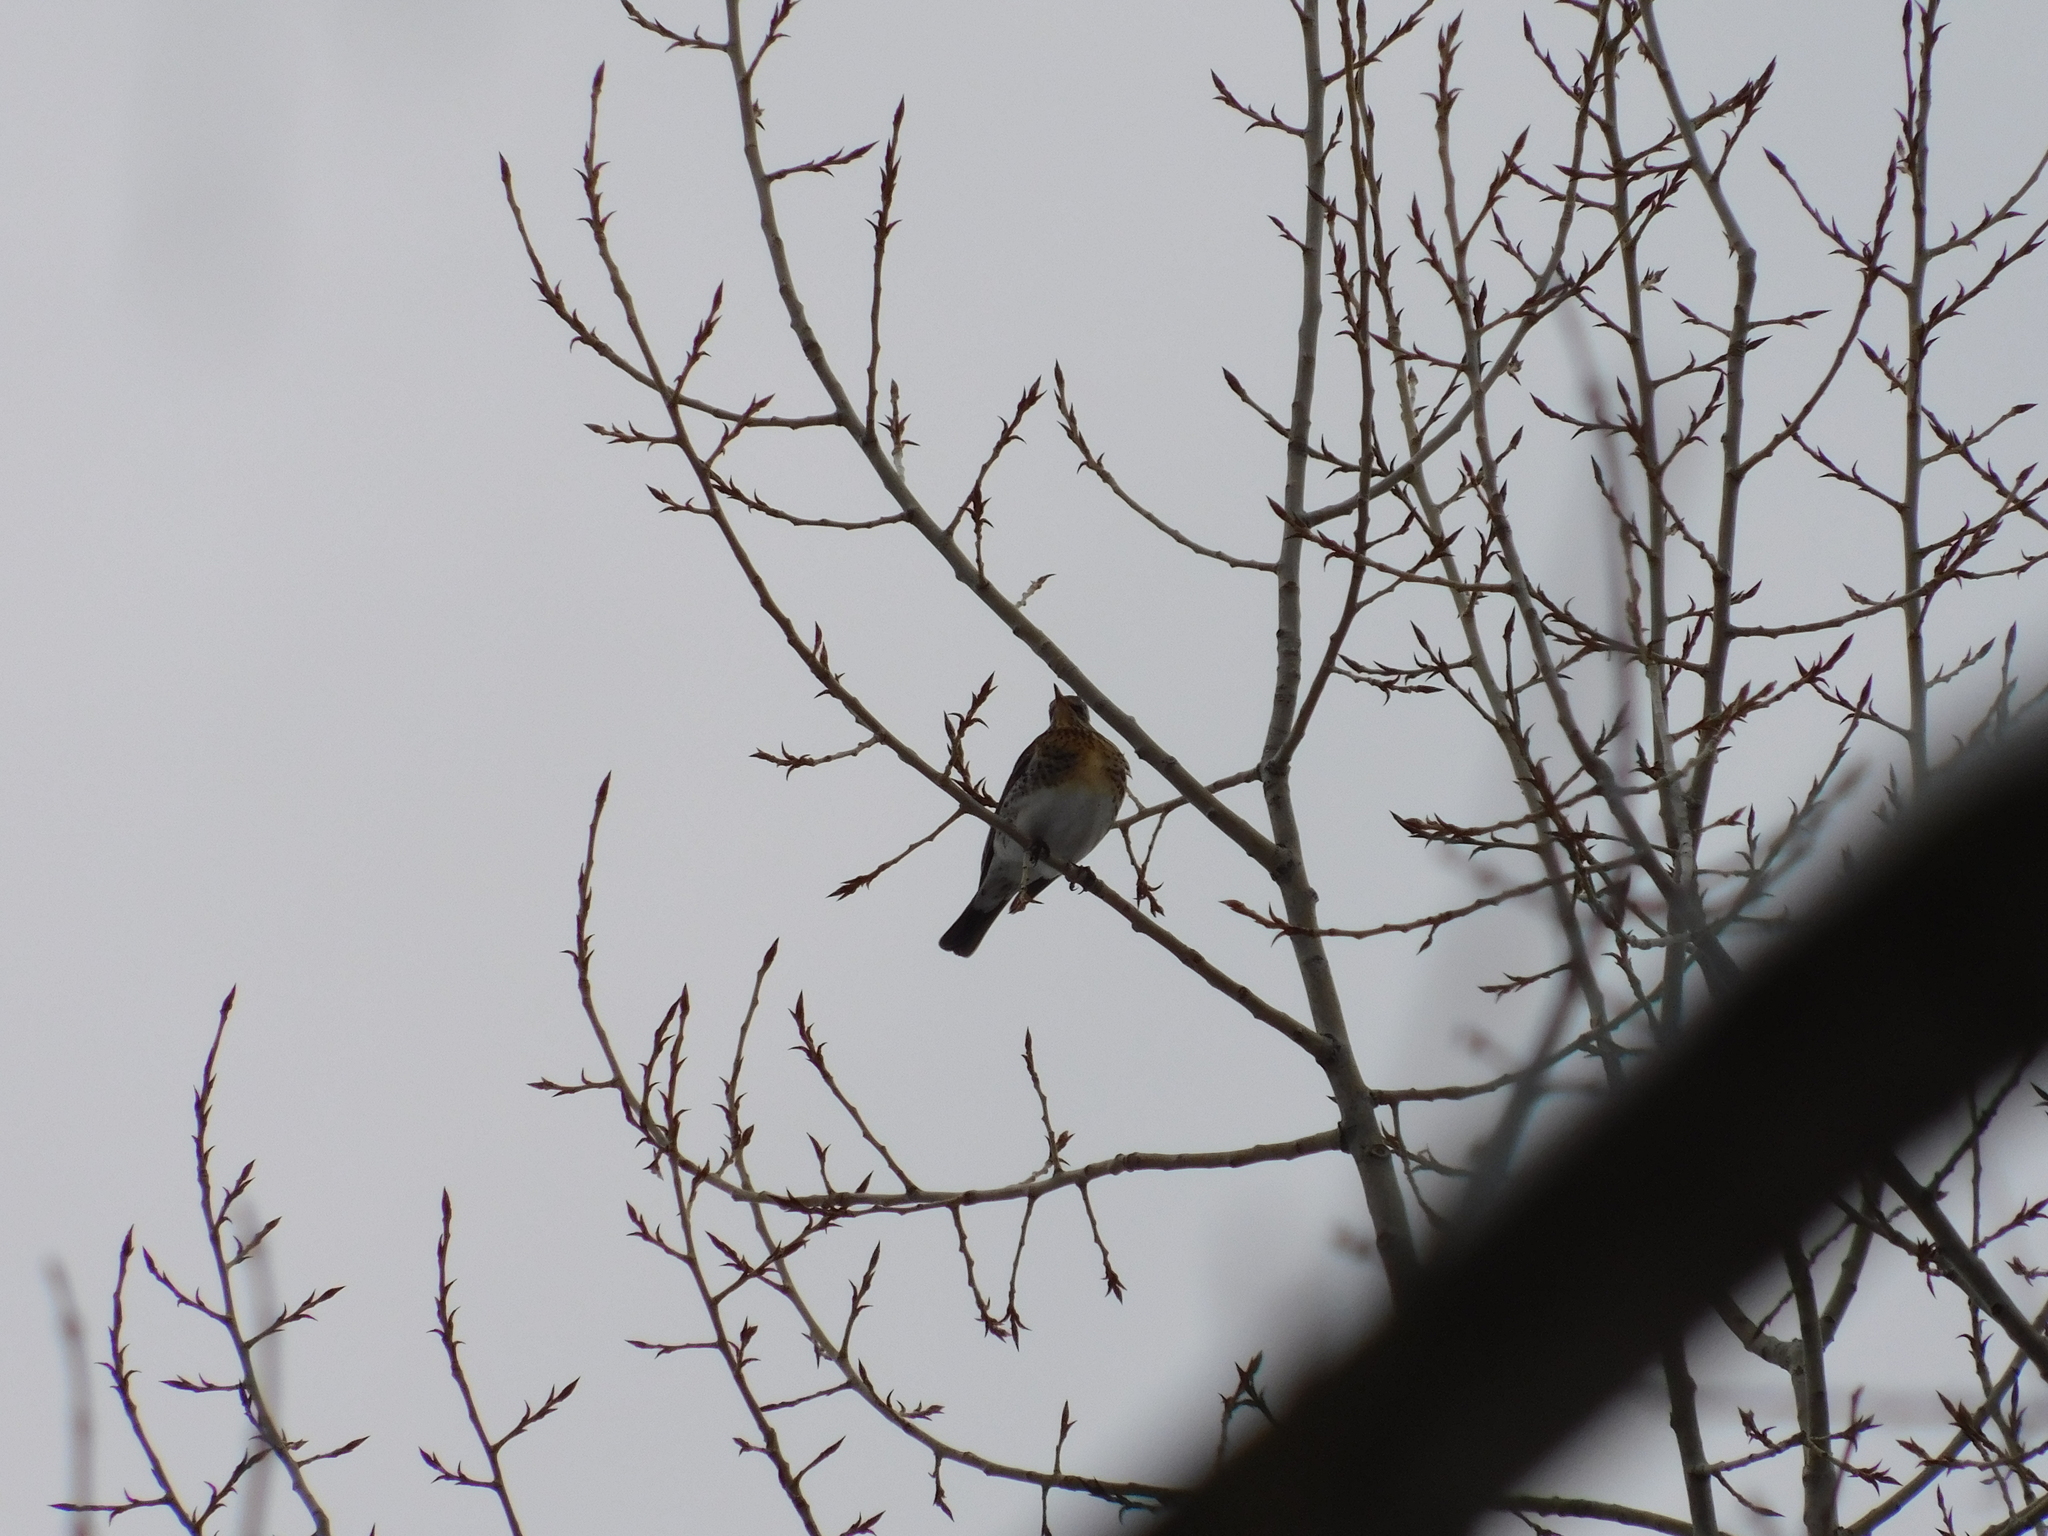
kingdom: Animalia
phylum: Chordata
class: Aves
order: Passeriformes
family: Turdidae
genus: Turdus
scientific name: Turdus pilaris
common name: Fieldfare
